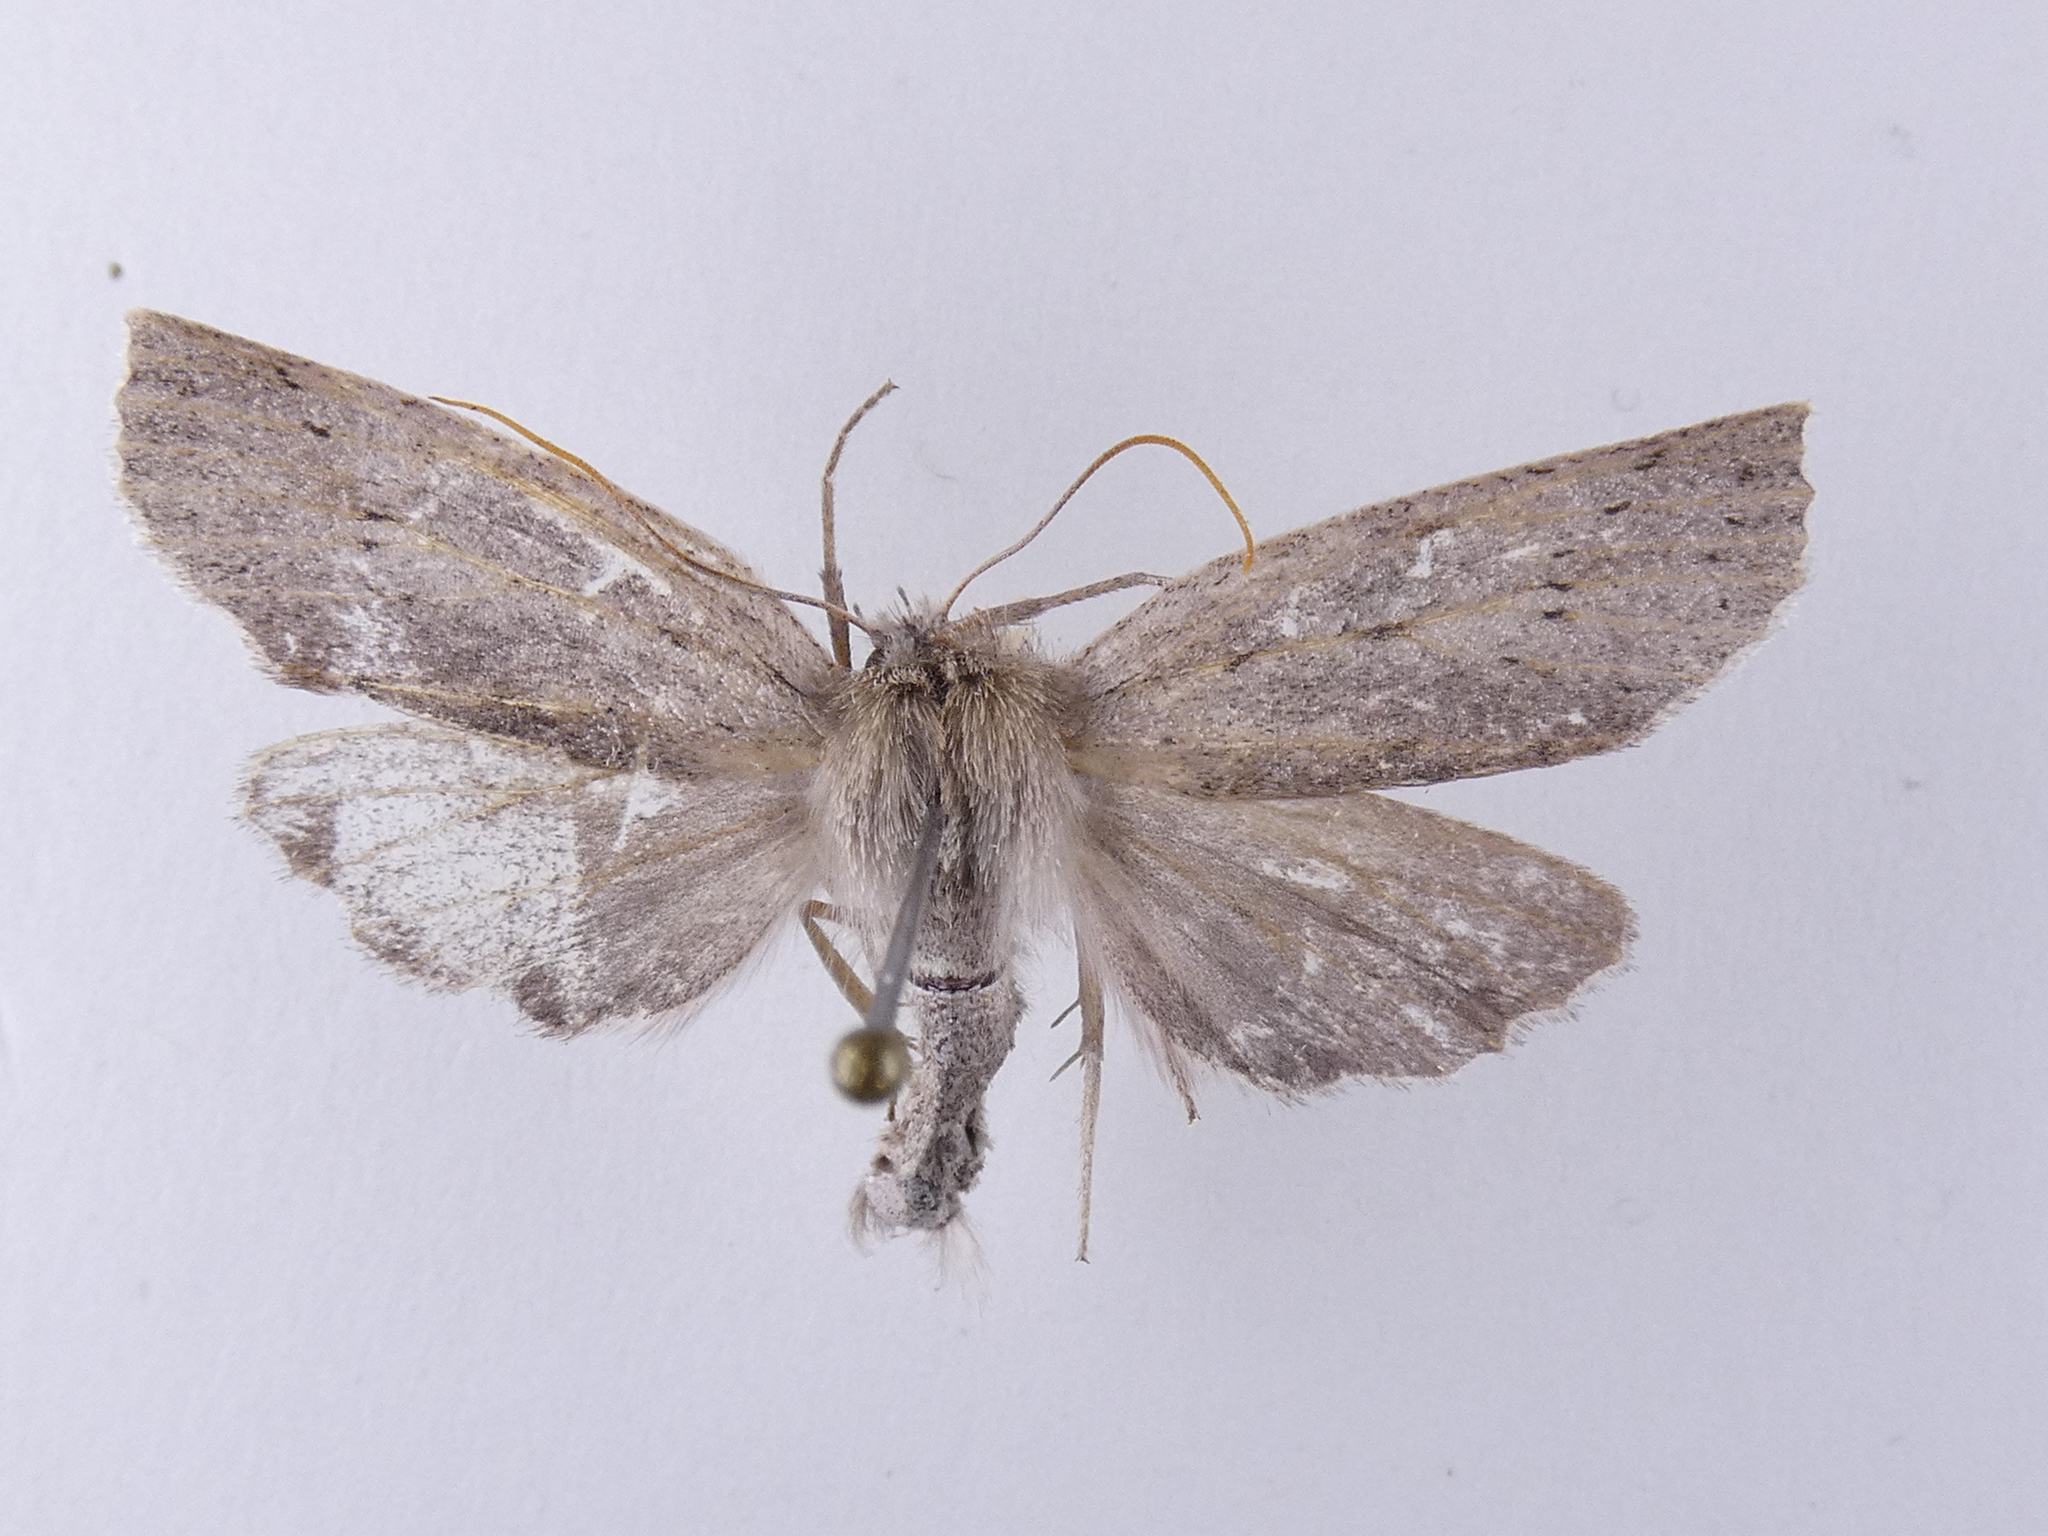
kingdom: Animalia
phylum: Arthropoda
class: Insecta
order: Lepidoptera
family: Geometridae
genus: Declana
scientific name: Declana leptomera
